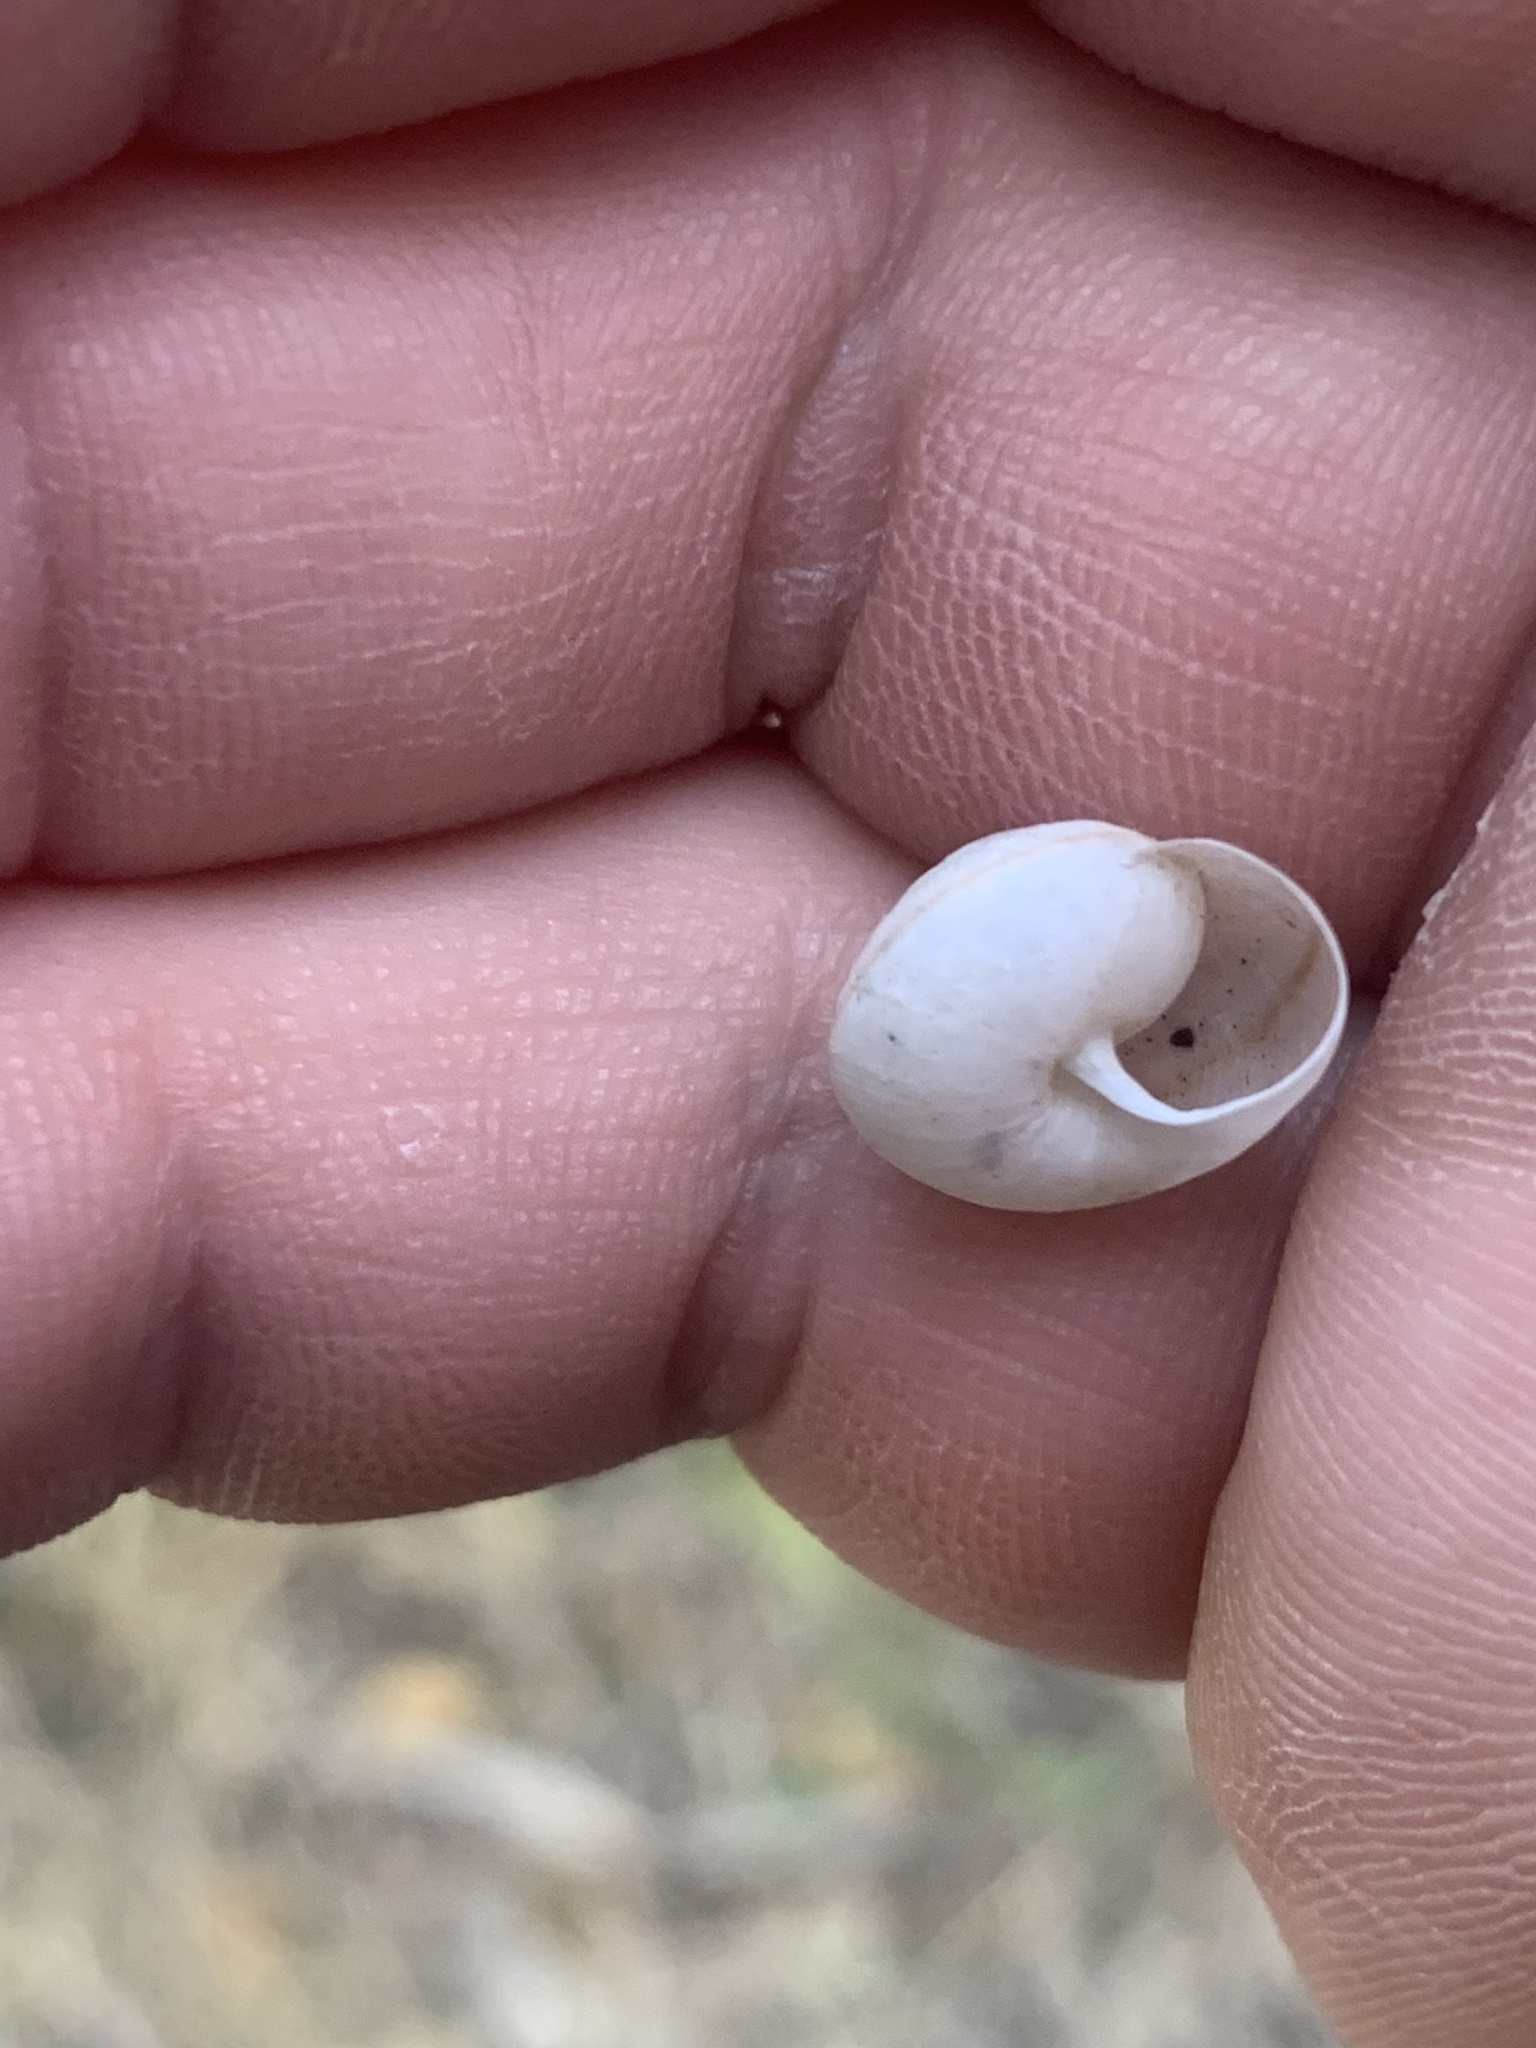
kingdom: Animalia
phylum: Mollusca
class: Gastropoda
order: Stylommatophora
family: Camaenidae
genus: Bradybaena
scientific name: Bradybaena similaris
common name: Asian trampsnail
